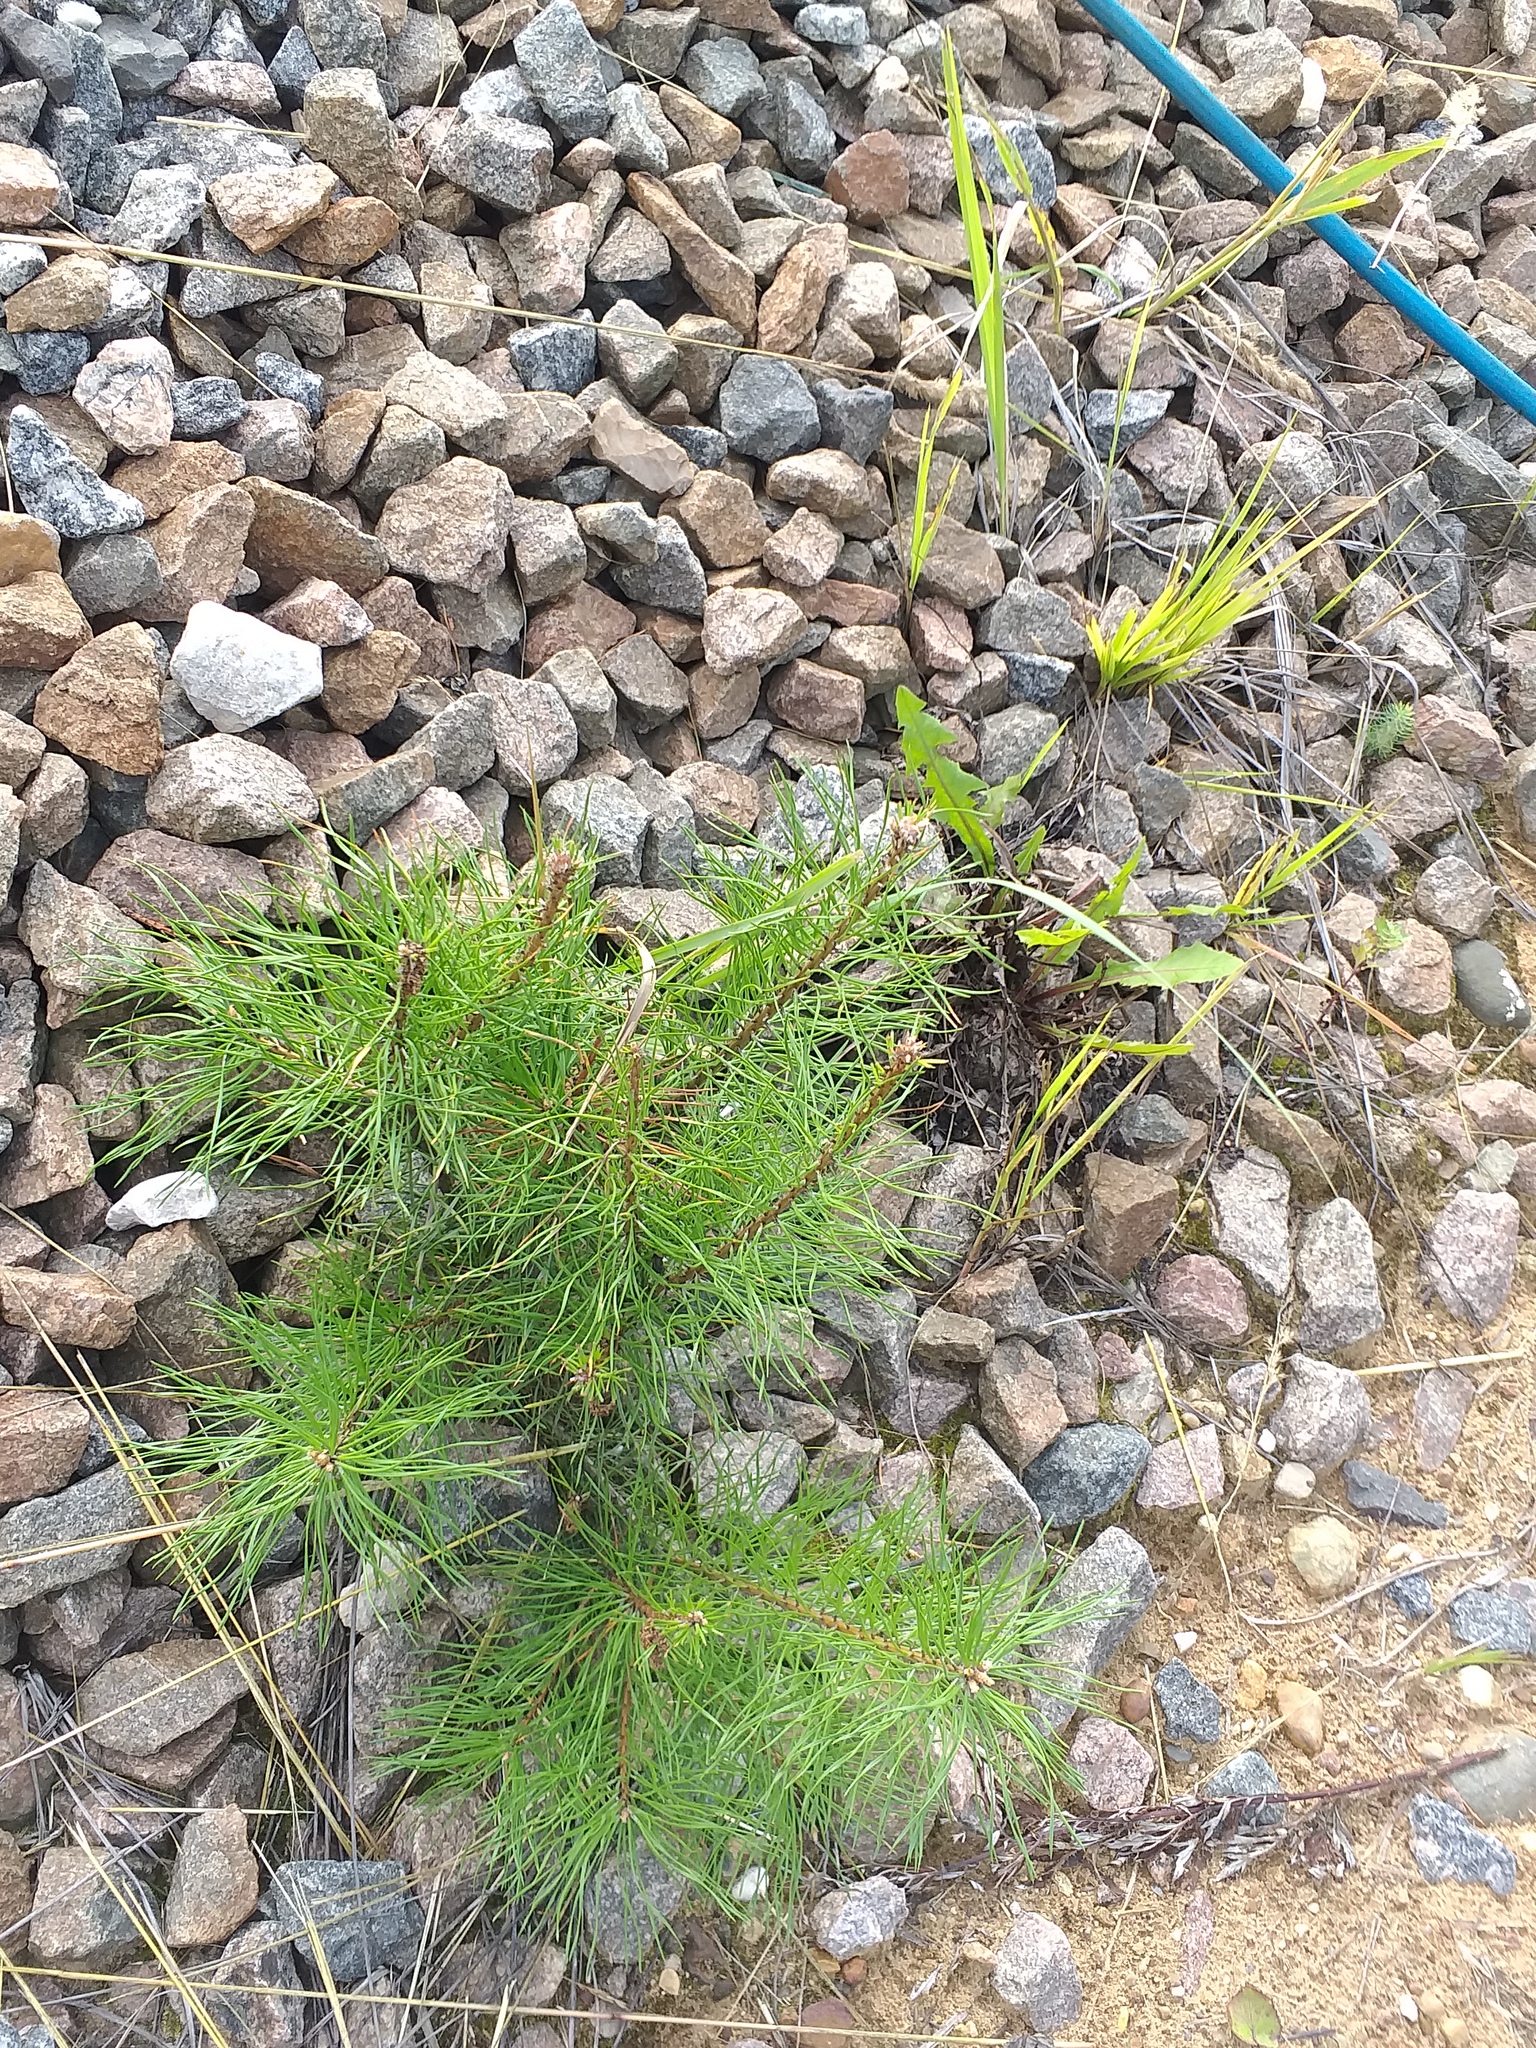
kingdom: Plantae
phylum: Tracheophyta
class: Pinopsida
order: Pinales
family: Pinaceae
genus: Pinus
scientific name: Pinus sylvestris
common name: Scots pine
